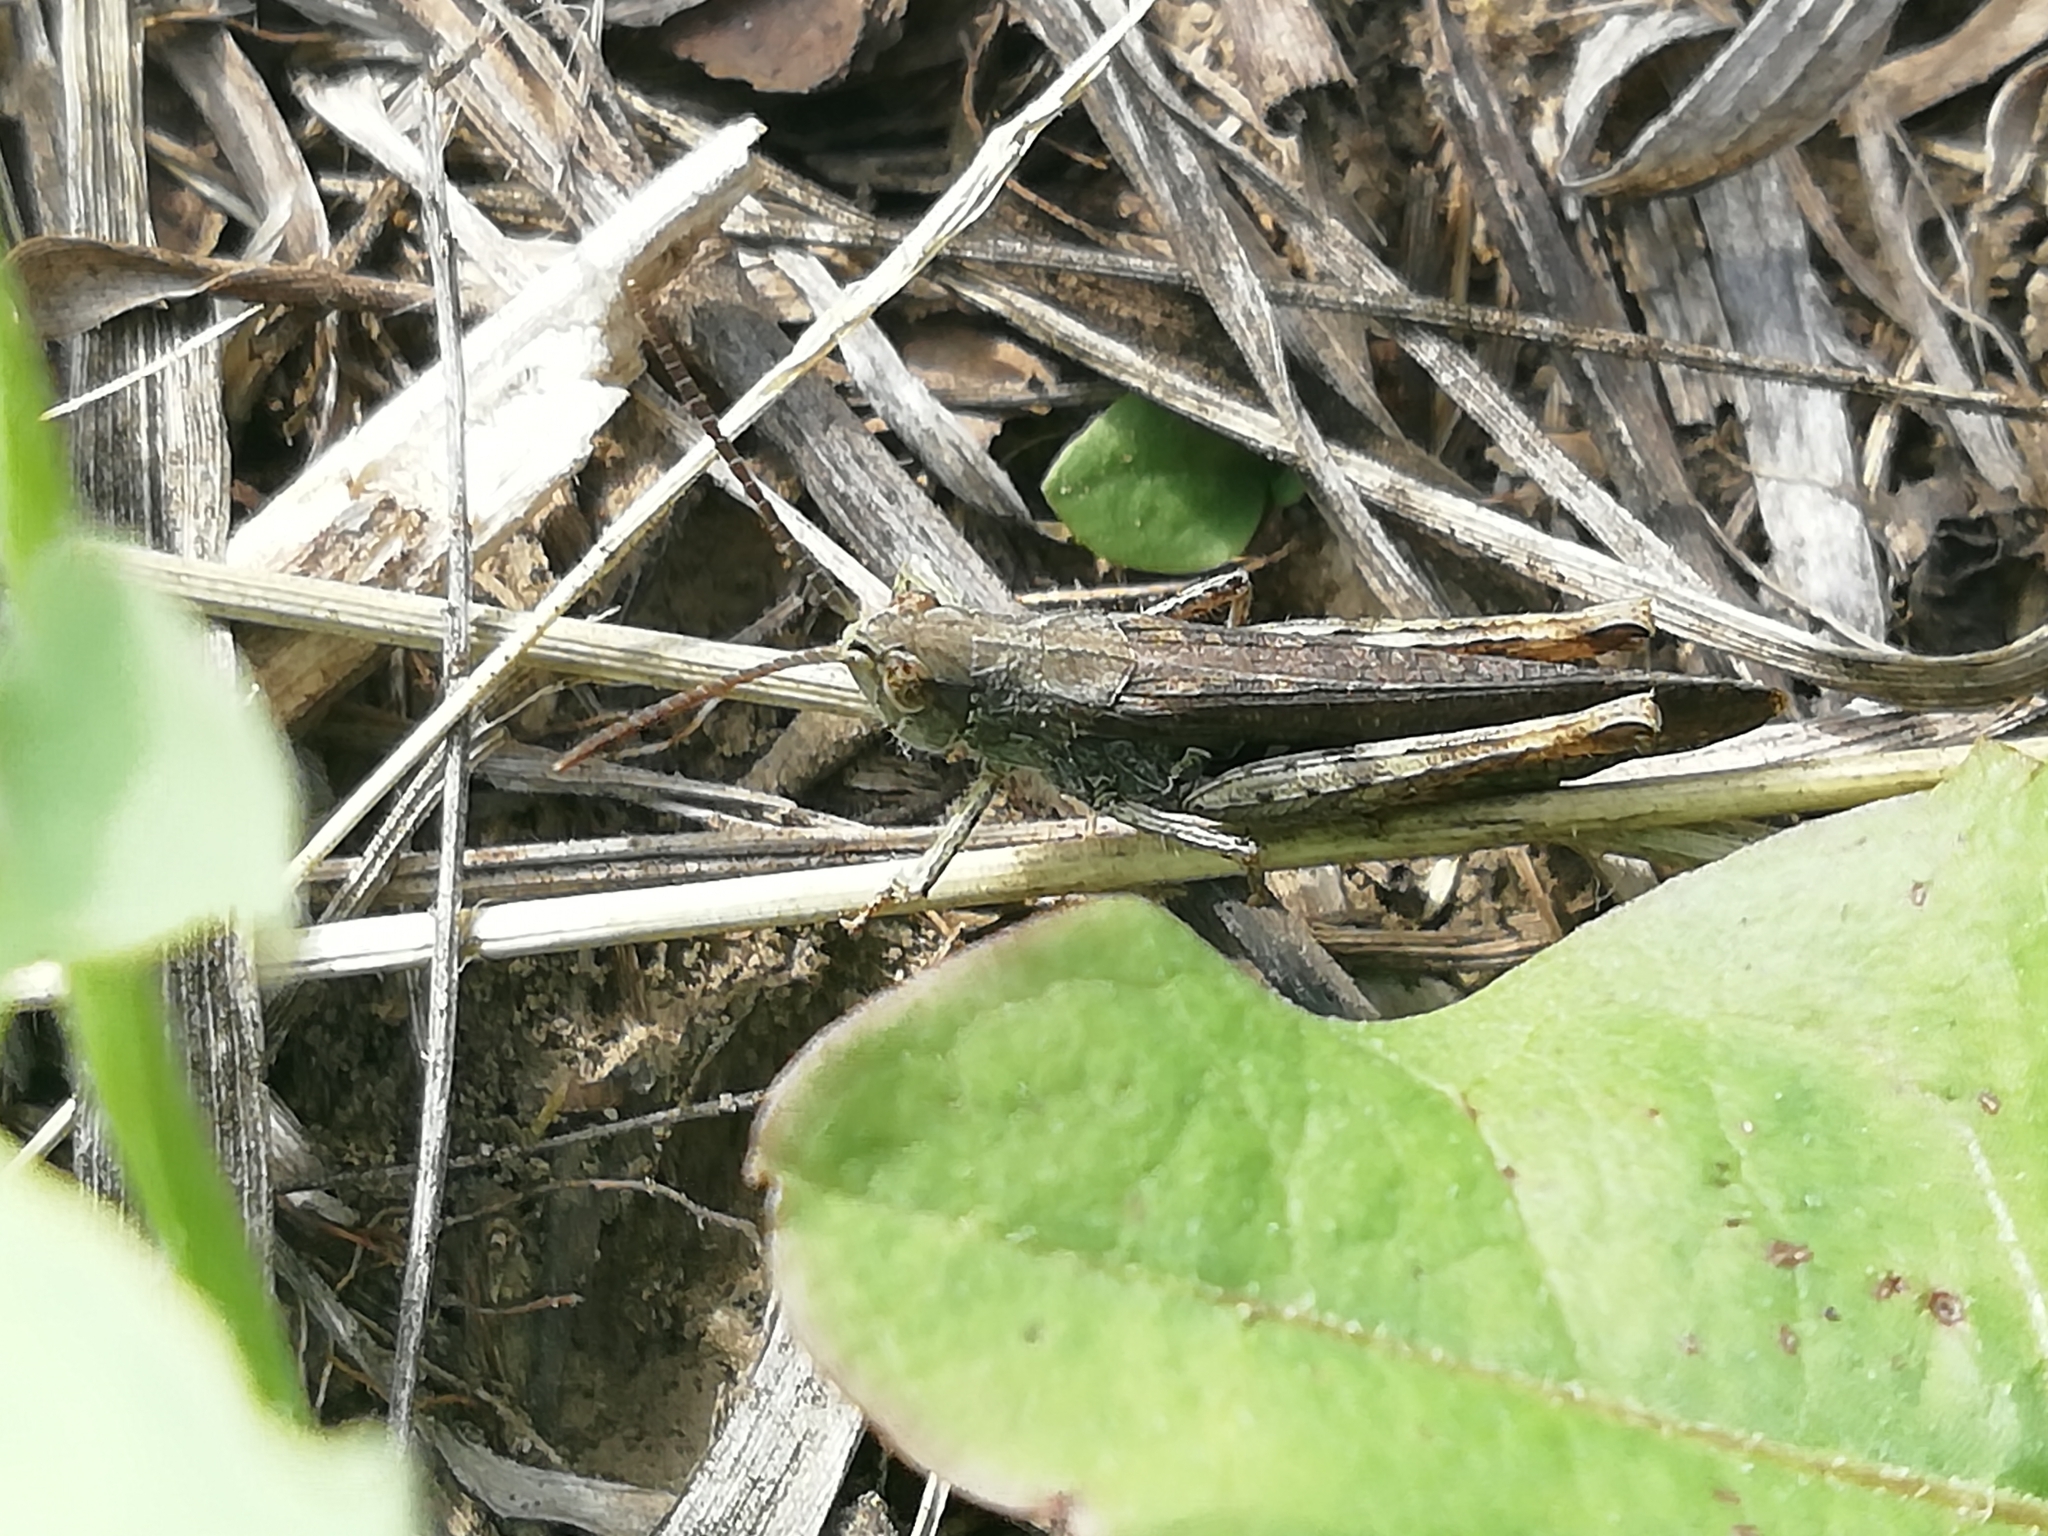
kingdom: Animalia
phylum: Arthropoda
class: Insecta
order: Orthoptera
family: Acrididae
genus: Chorthippus
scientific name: Chorthippus biguttulus
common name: Bow-winged grasshopper
